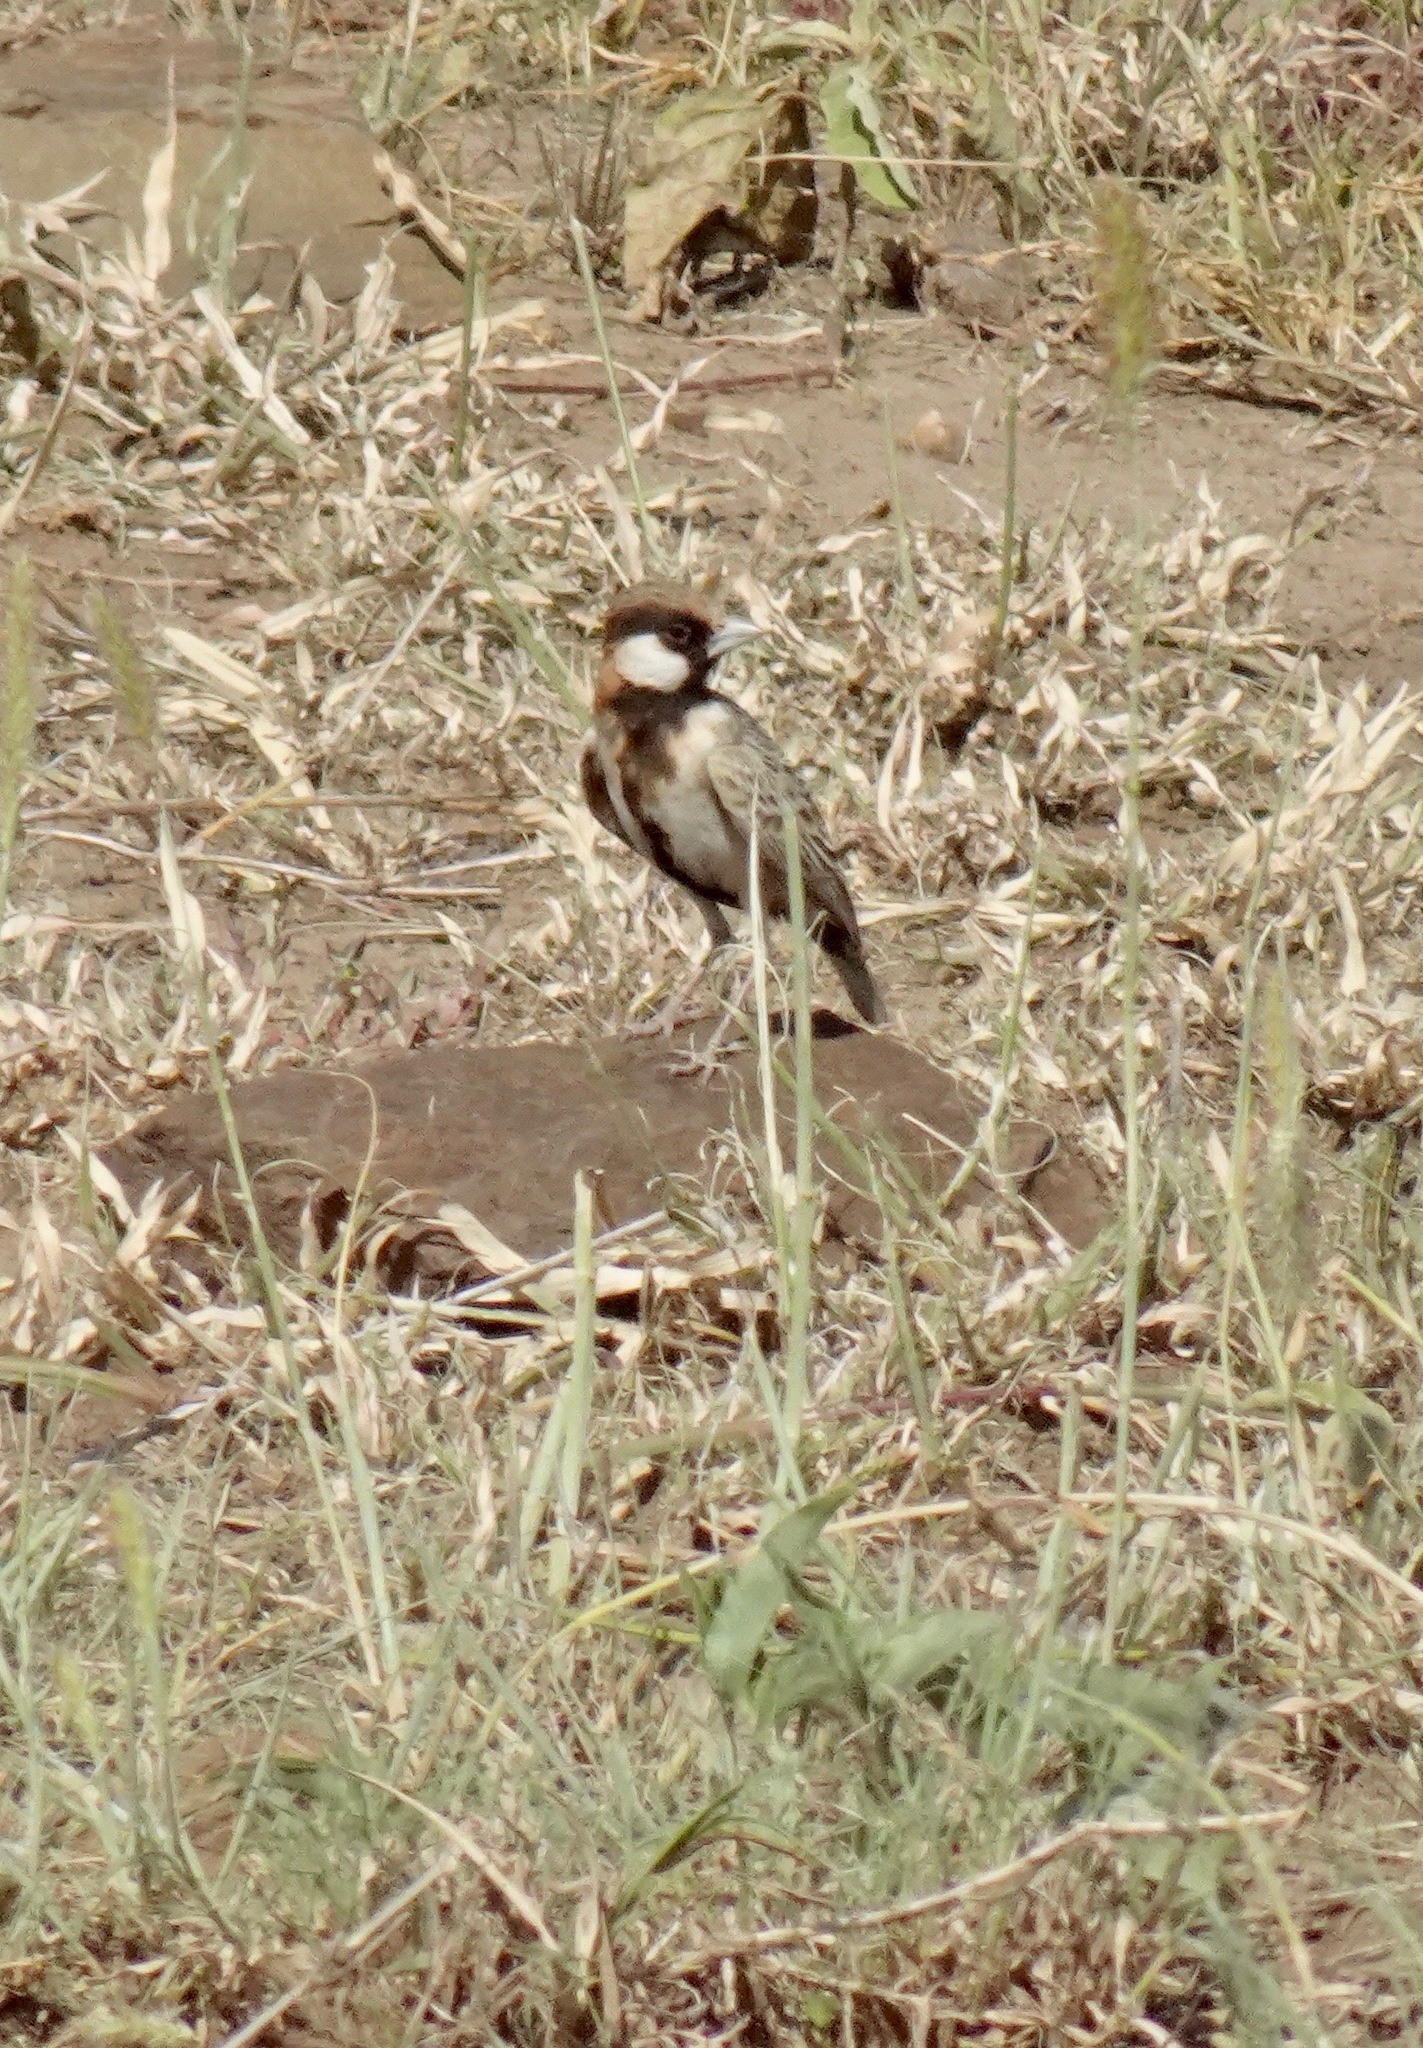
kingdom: Animalia
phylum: Chordata
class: Aves
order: Passeriformes
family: Alaudidae
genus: Eremopterix
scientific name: Eremopterix leucopareia
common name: Fischer's sparrow-lark
